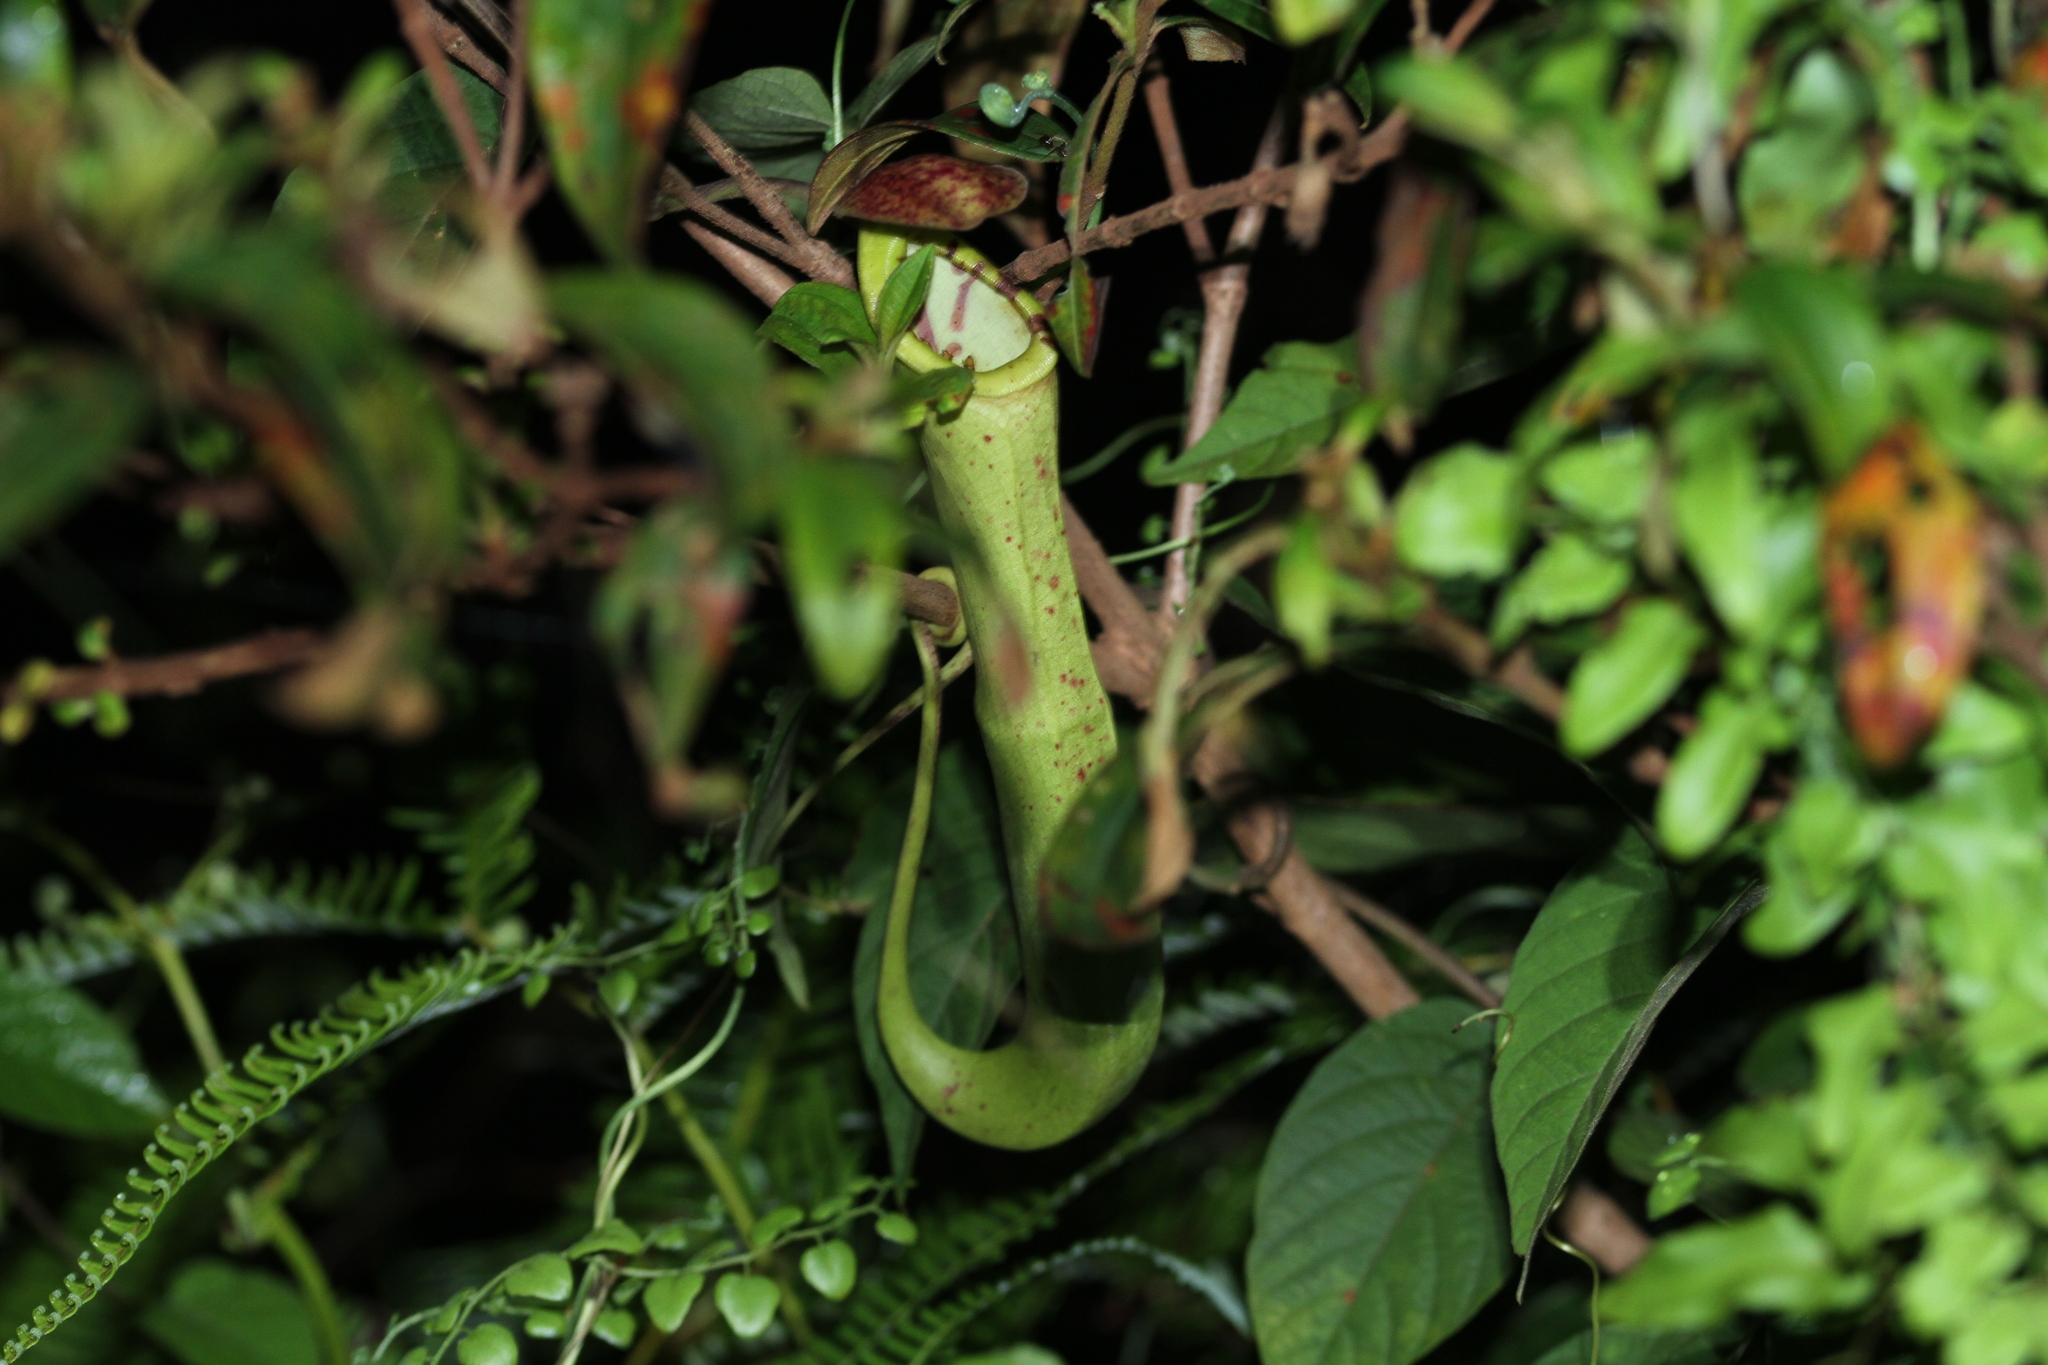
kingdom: Plantae
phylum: Tracheophyta
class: Magnoliopsida
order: Caryophyllales
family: Nepenthaceae
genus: Nepenthes
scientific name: Nepenthes mirabilis
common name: Tropical pitcherplant
